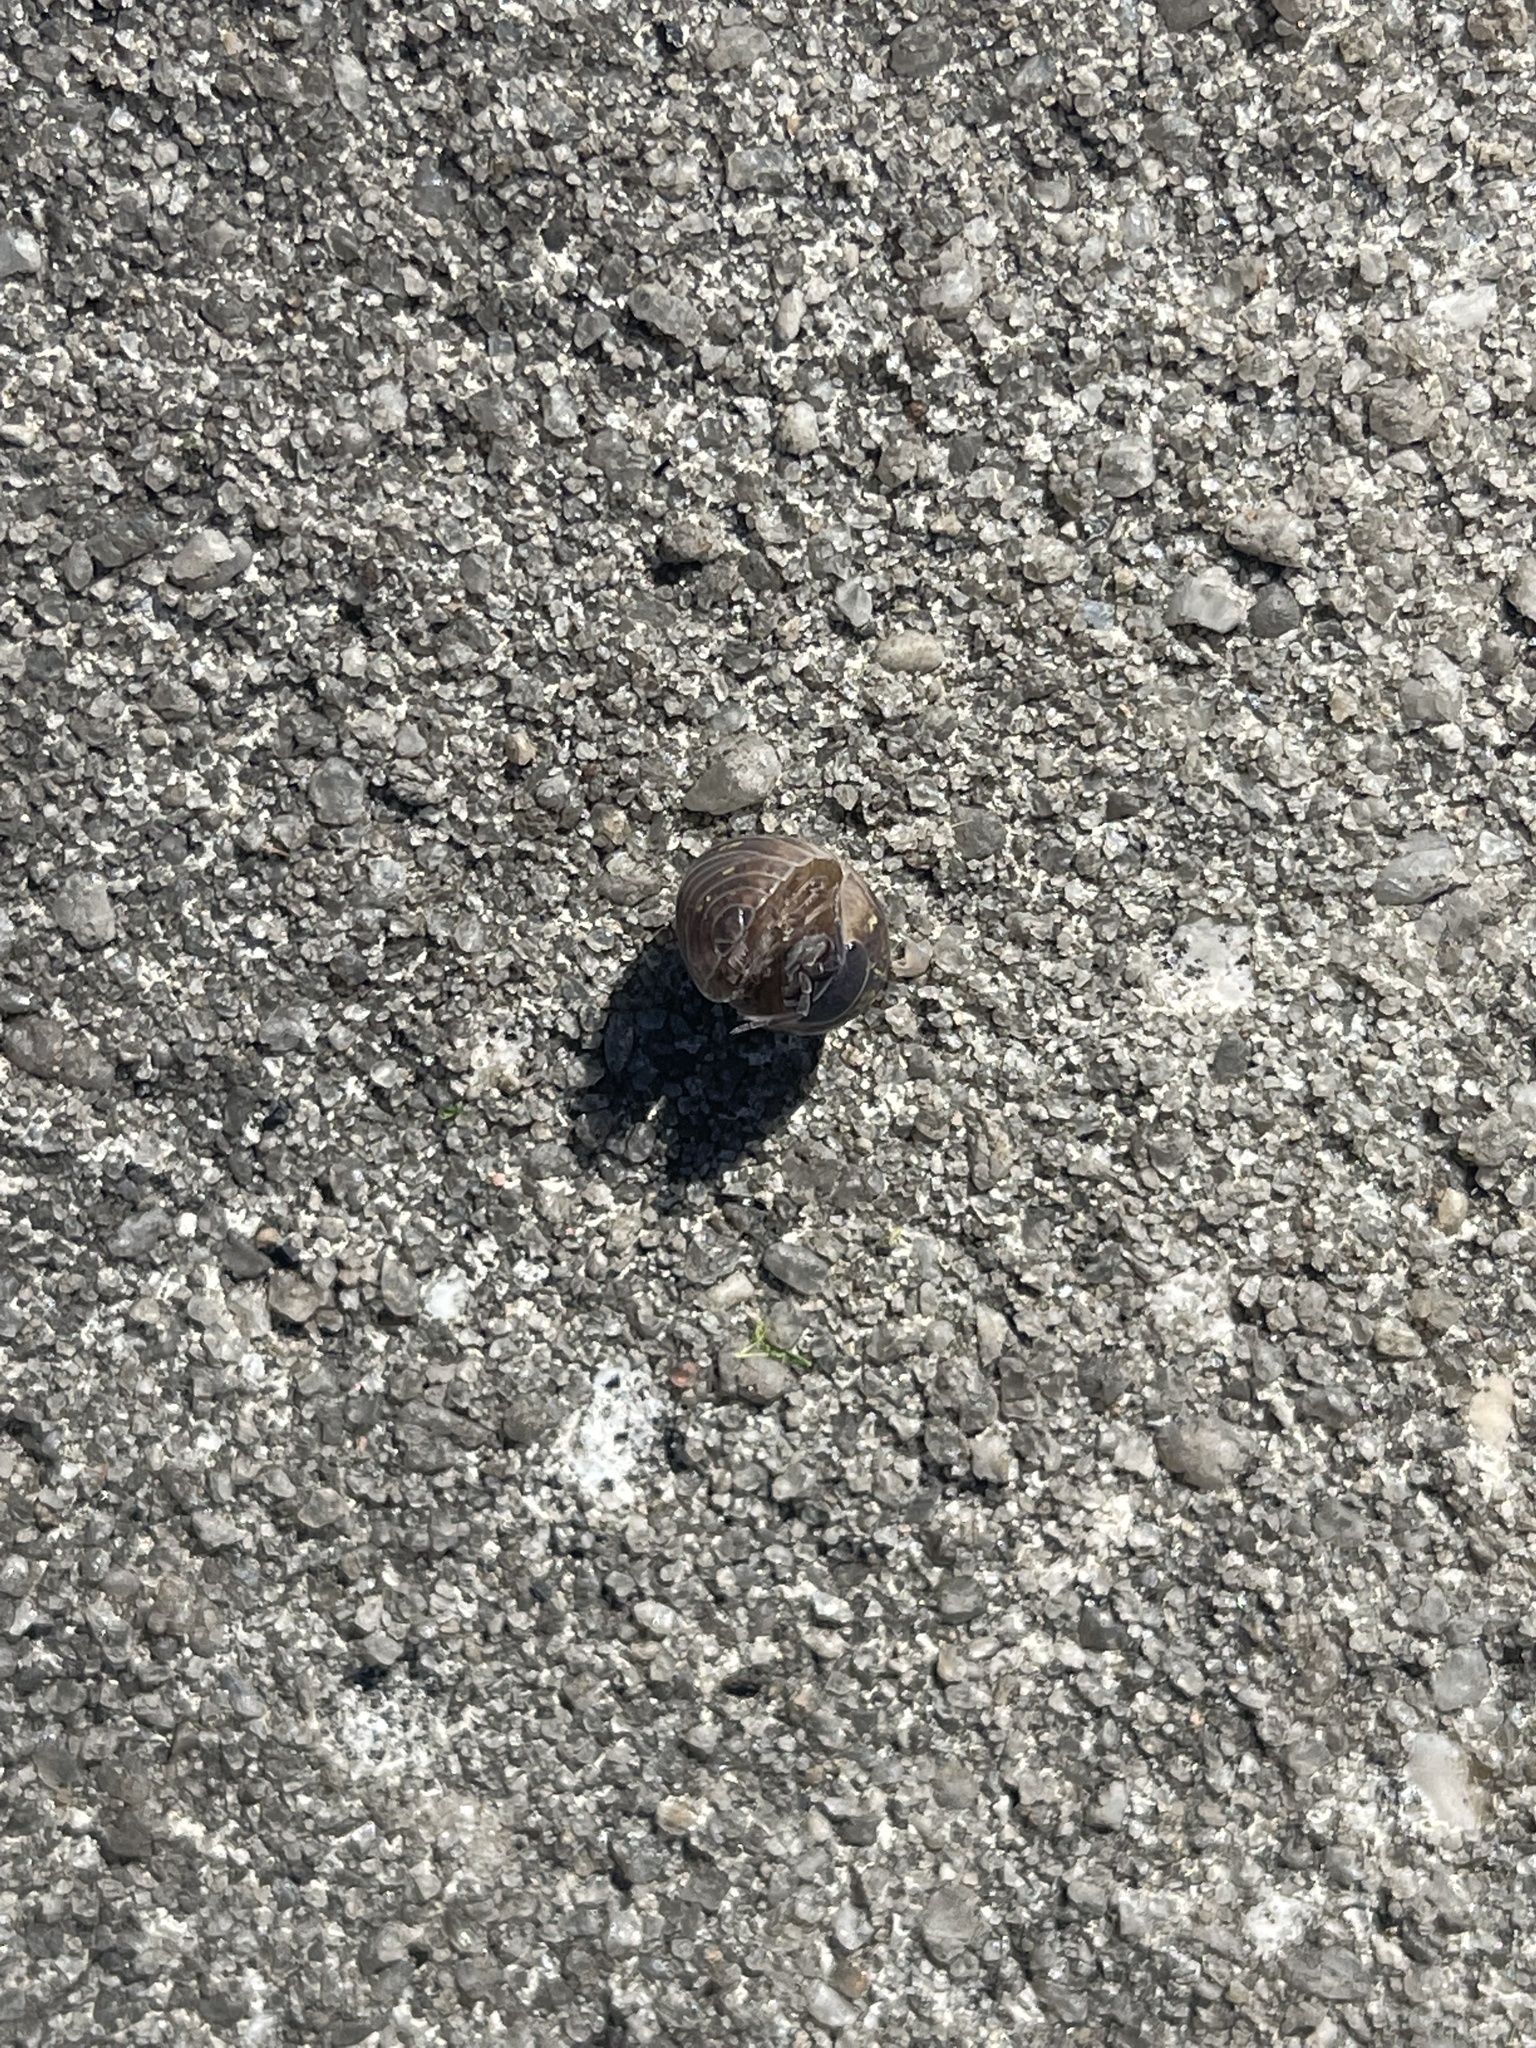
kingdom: Animalia
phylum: Arthropoda
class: Malacostraca
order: Isopoda
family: Armadillidiidae
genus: Armadillidium
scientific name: Armadillidium vulgare
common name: Common pill woodlouse
